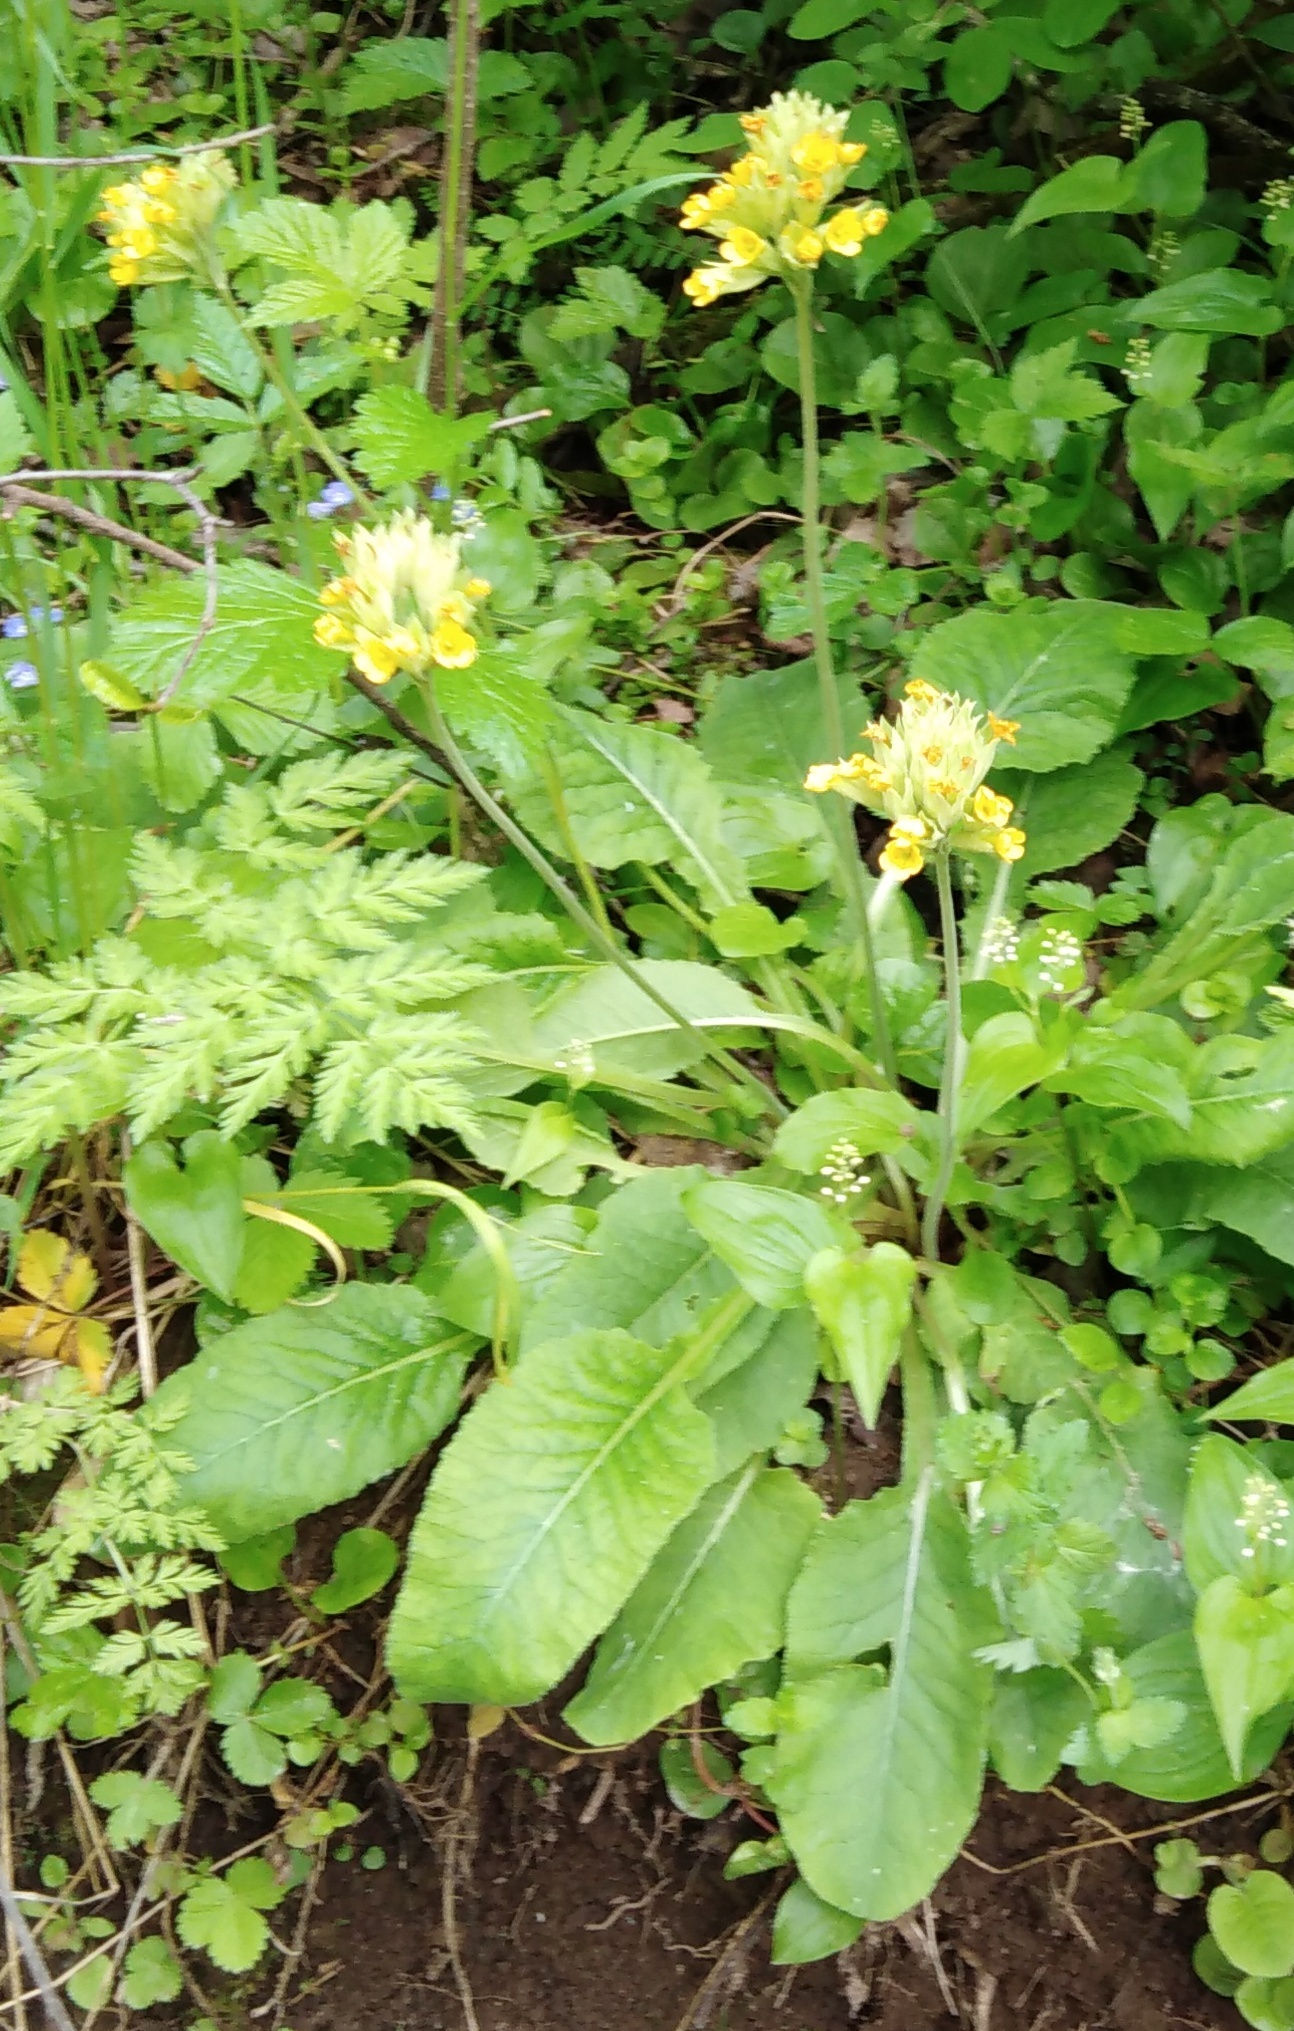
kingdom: Plantae
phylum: Tracheophyta
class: Magnoliopsida
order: Ericales
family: Primulaceae
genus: Primula
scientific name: Primula veris
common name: Cowslip
